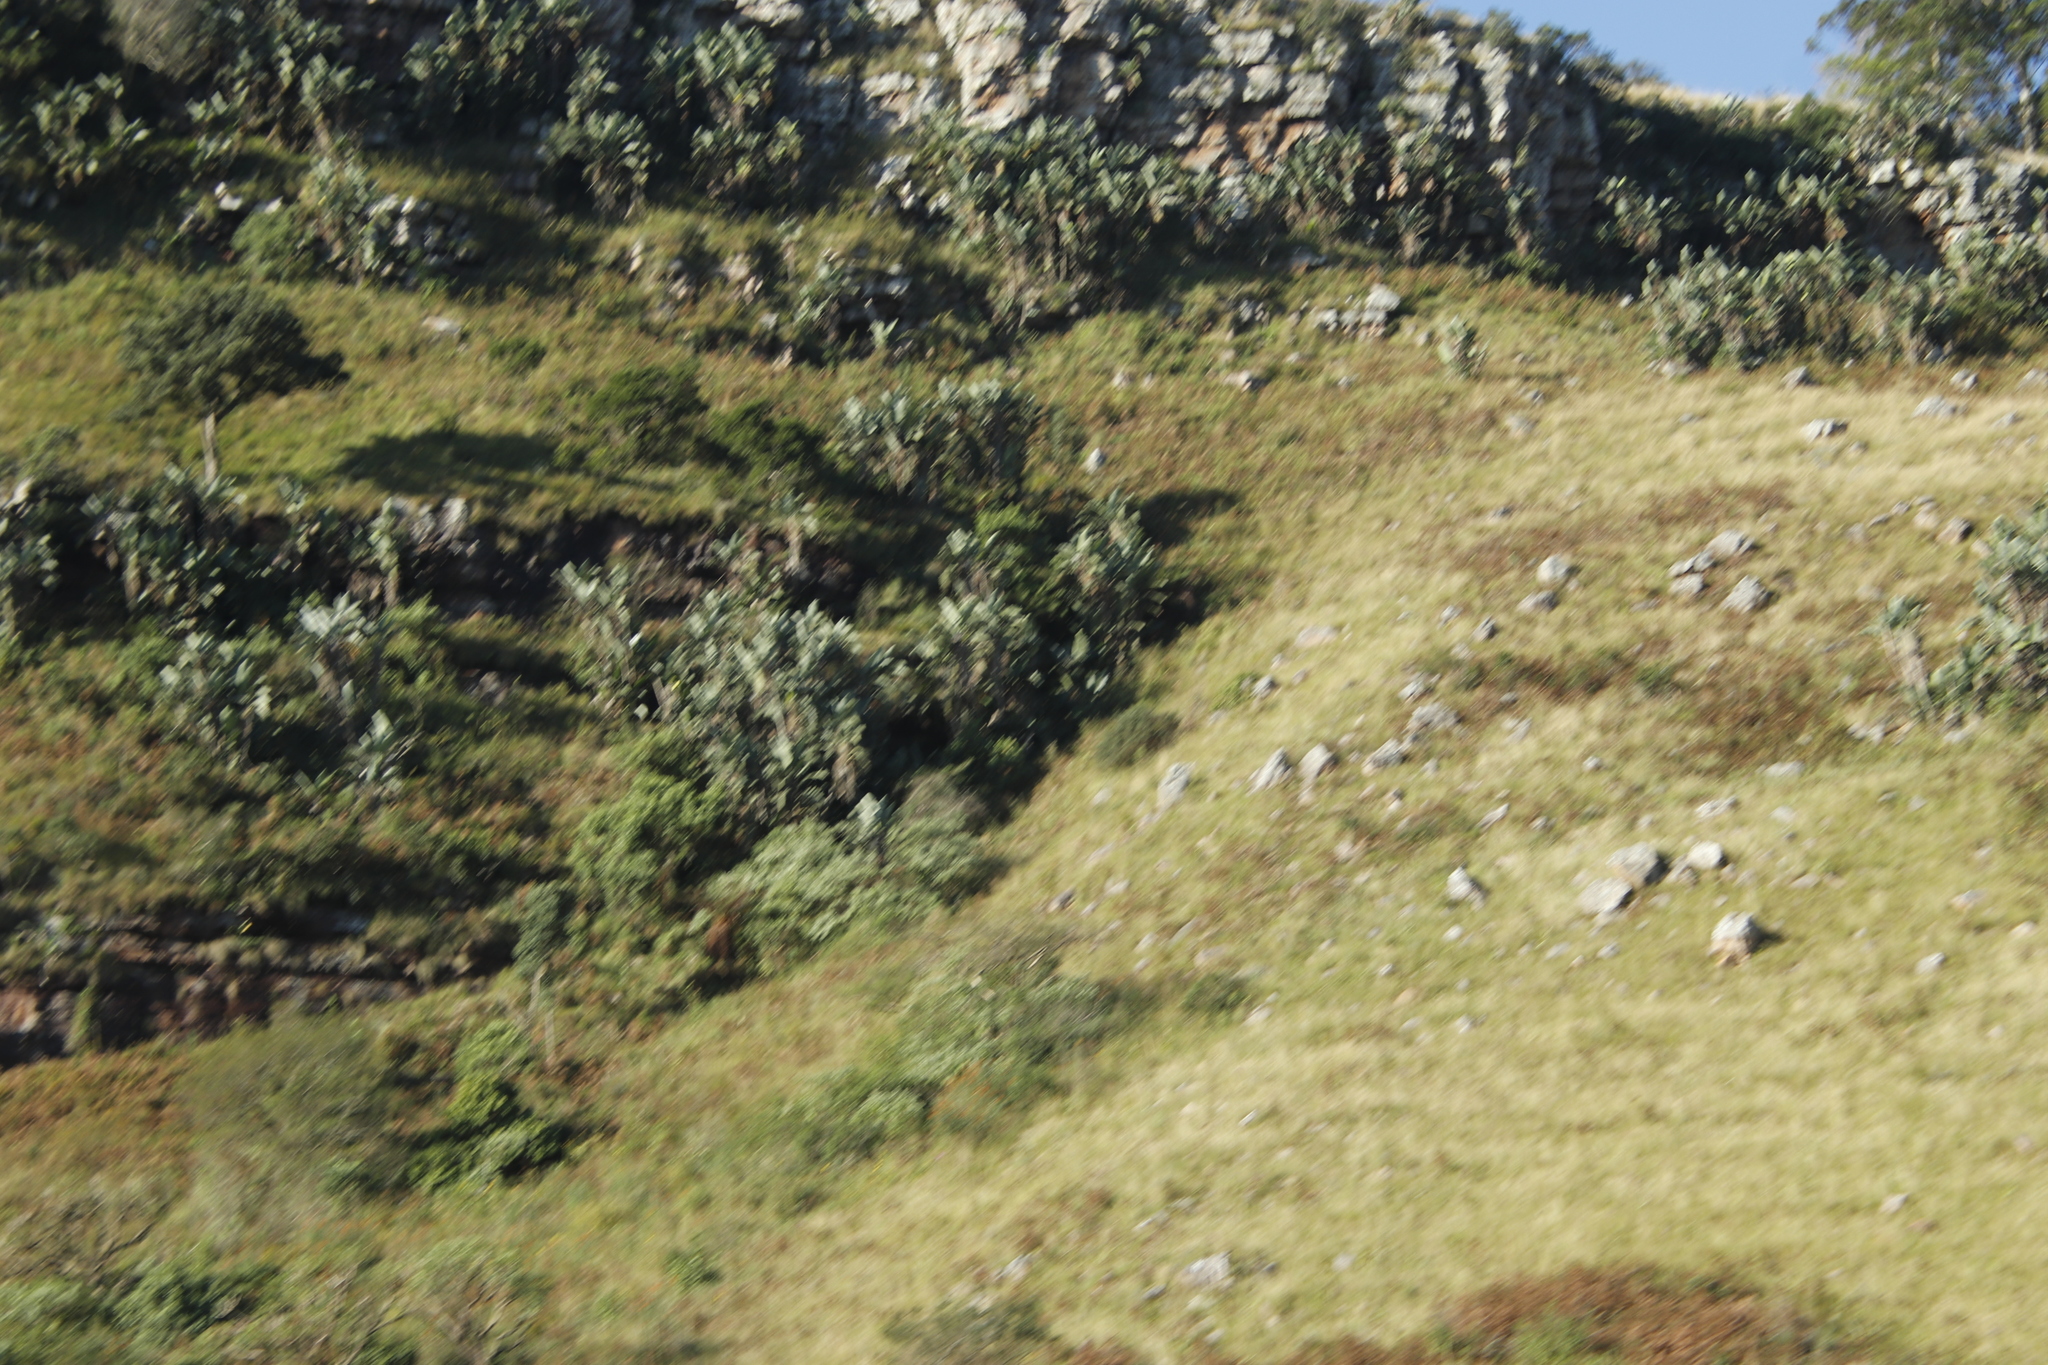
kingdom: Plantae
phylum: Tracheophyta
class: Liliopsida
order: Zingiberales
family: Strelitziaceae
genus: Strelitzia
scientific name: Strelitzia nicolai
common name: Bird-of-paradise tree
